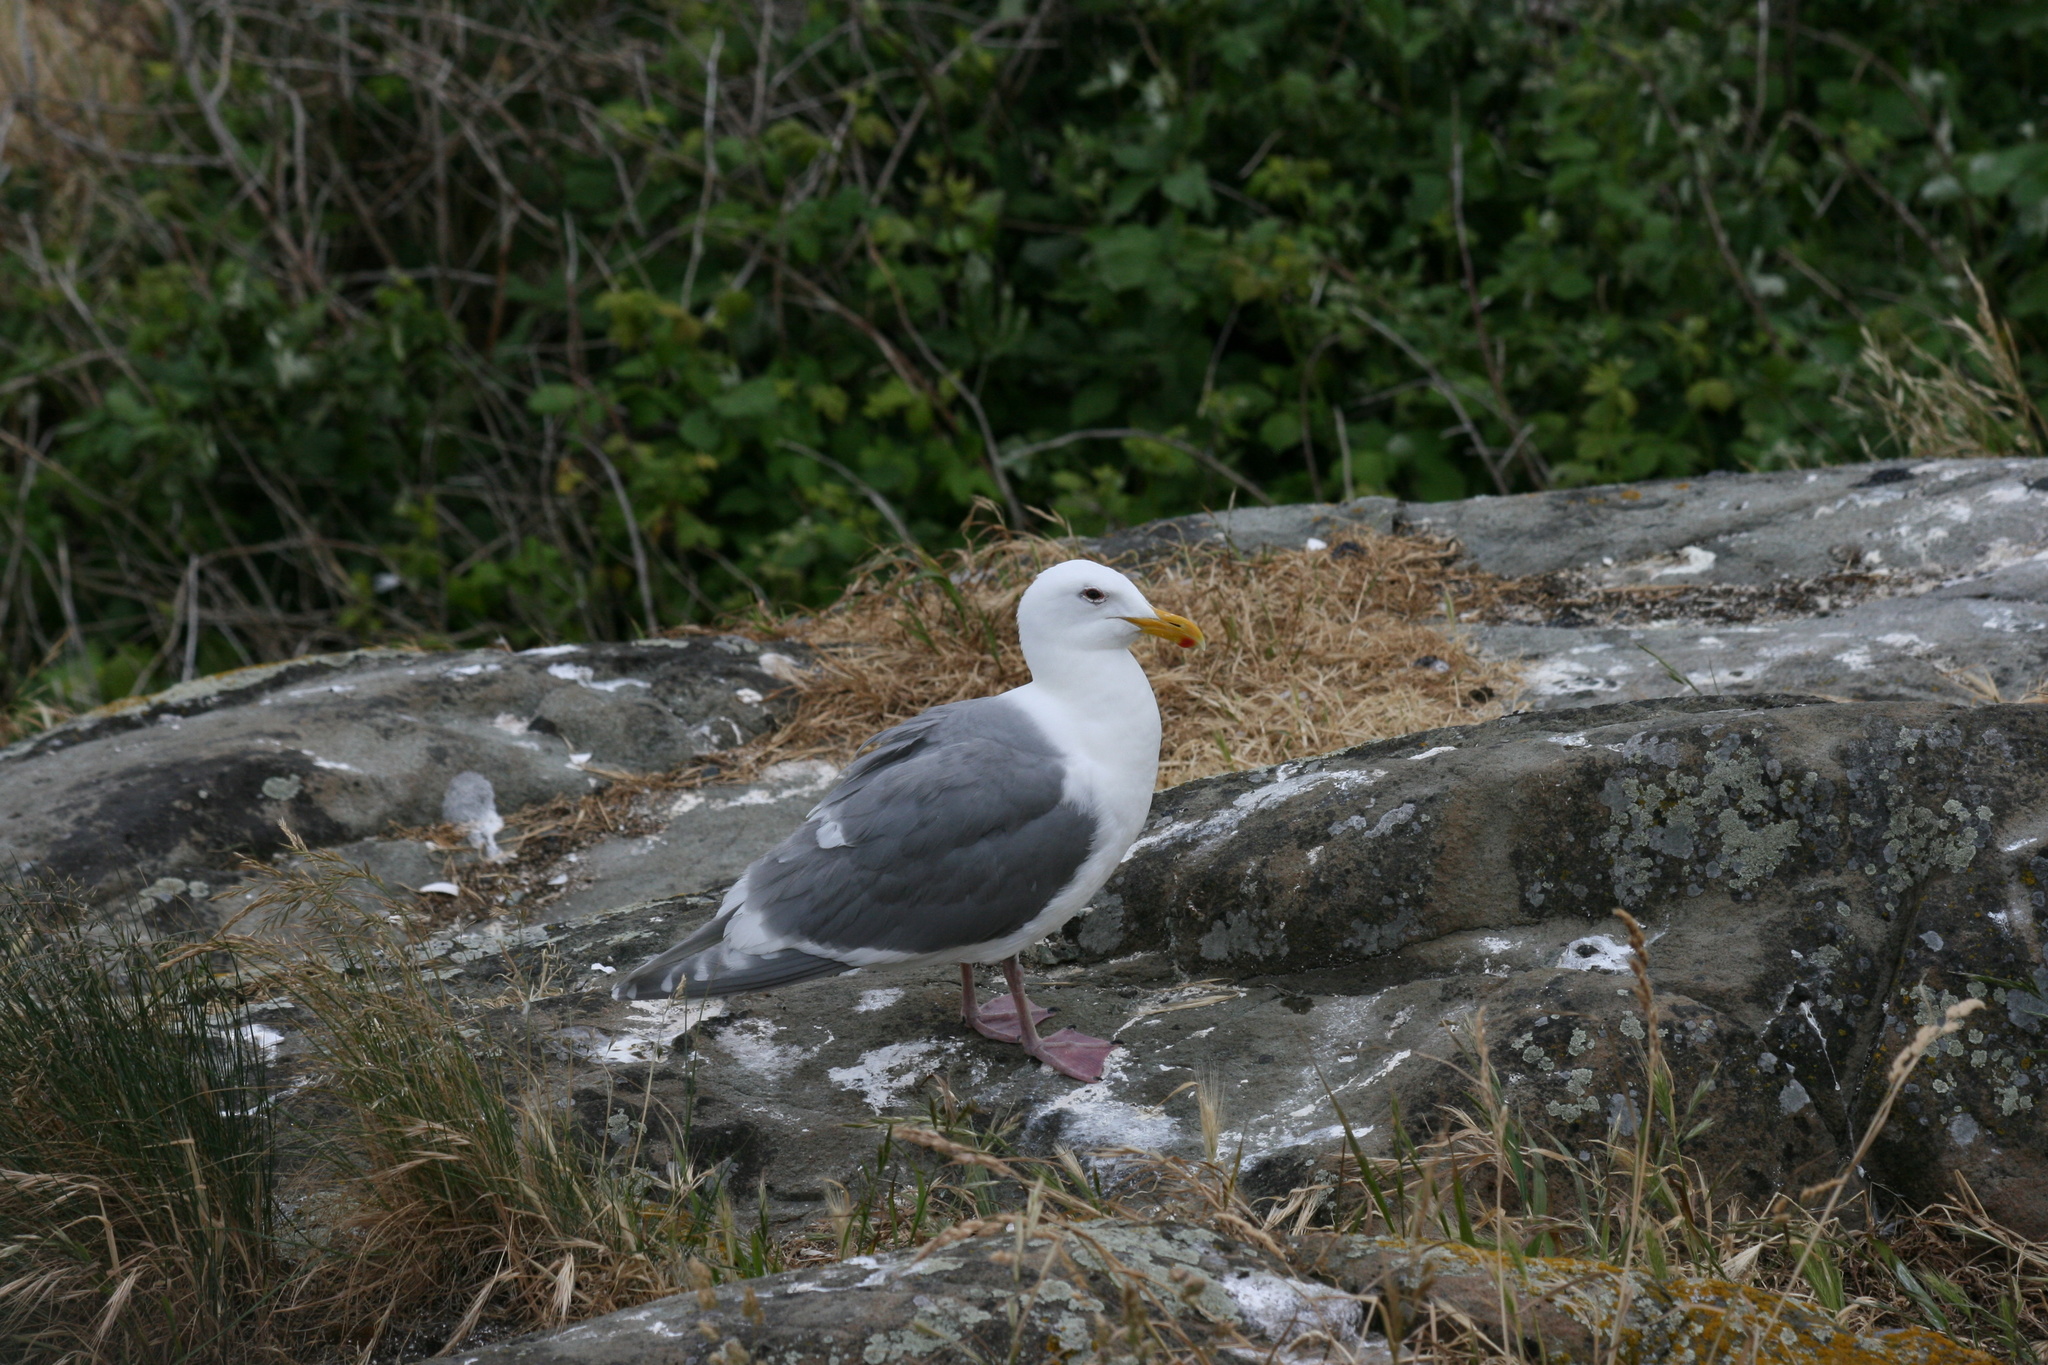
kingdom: Animalia
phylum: Chordata
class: Aves
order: Charadriiformes
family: Laridae
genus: Larus
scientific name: Larus glaucescens
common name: Glaucous-winged gull
